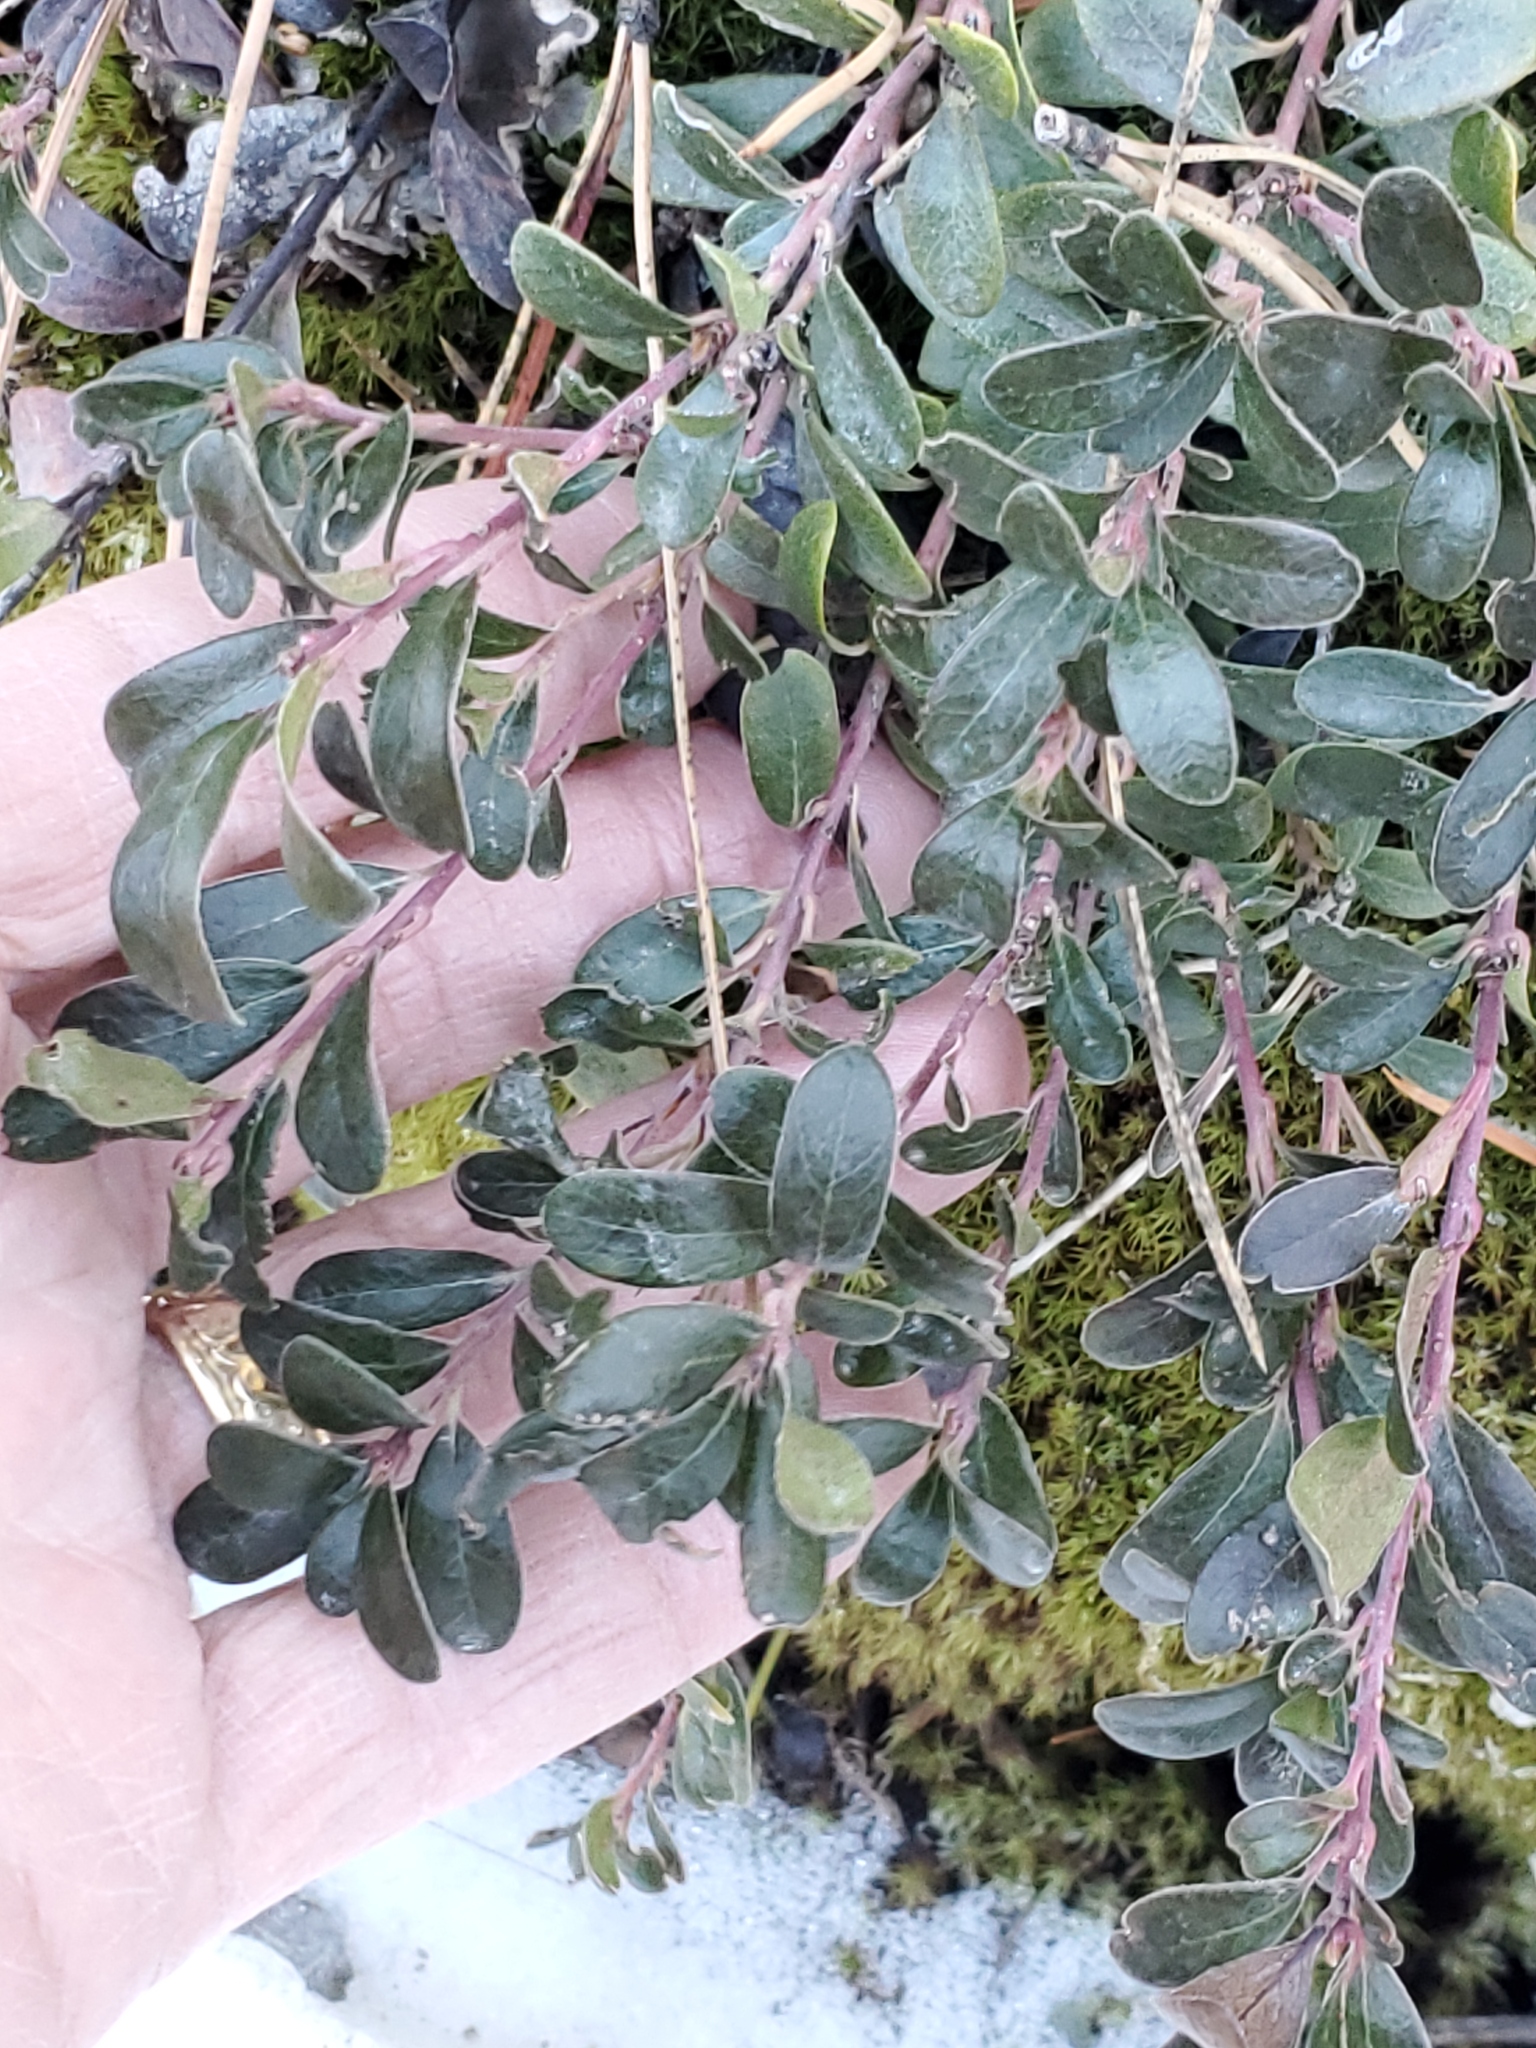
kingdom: Plantae
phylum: Tracheophyta
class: Magnoliopsida
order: Ericales
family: Ericaceae
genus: Arctostaphylos
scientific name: Arctostaphylos uva-ursi
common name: Bearberry
